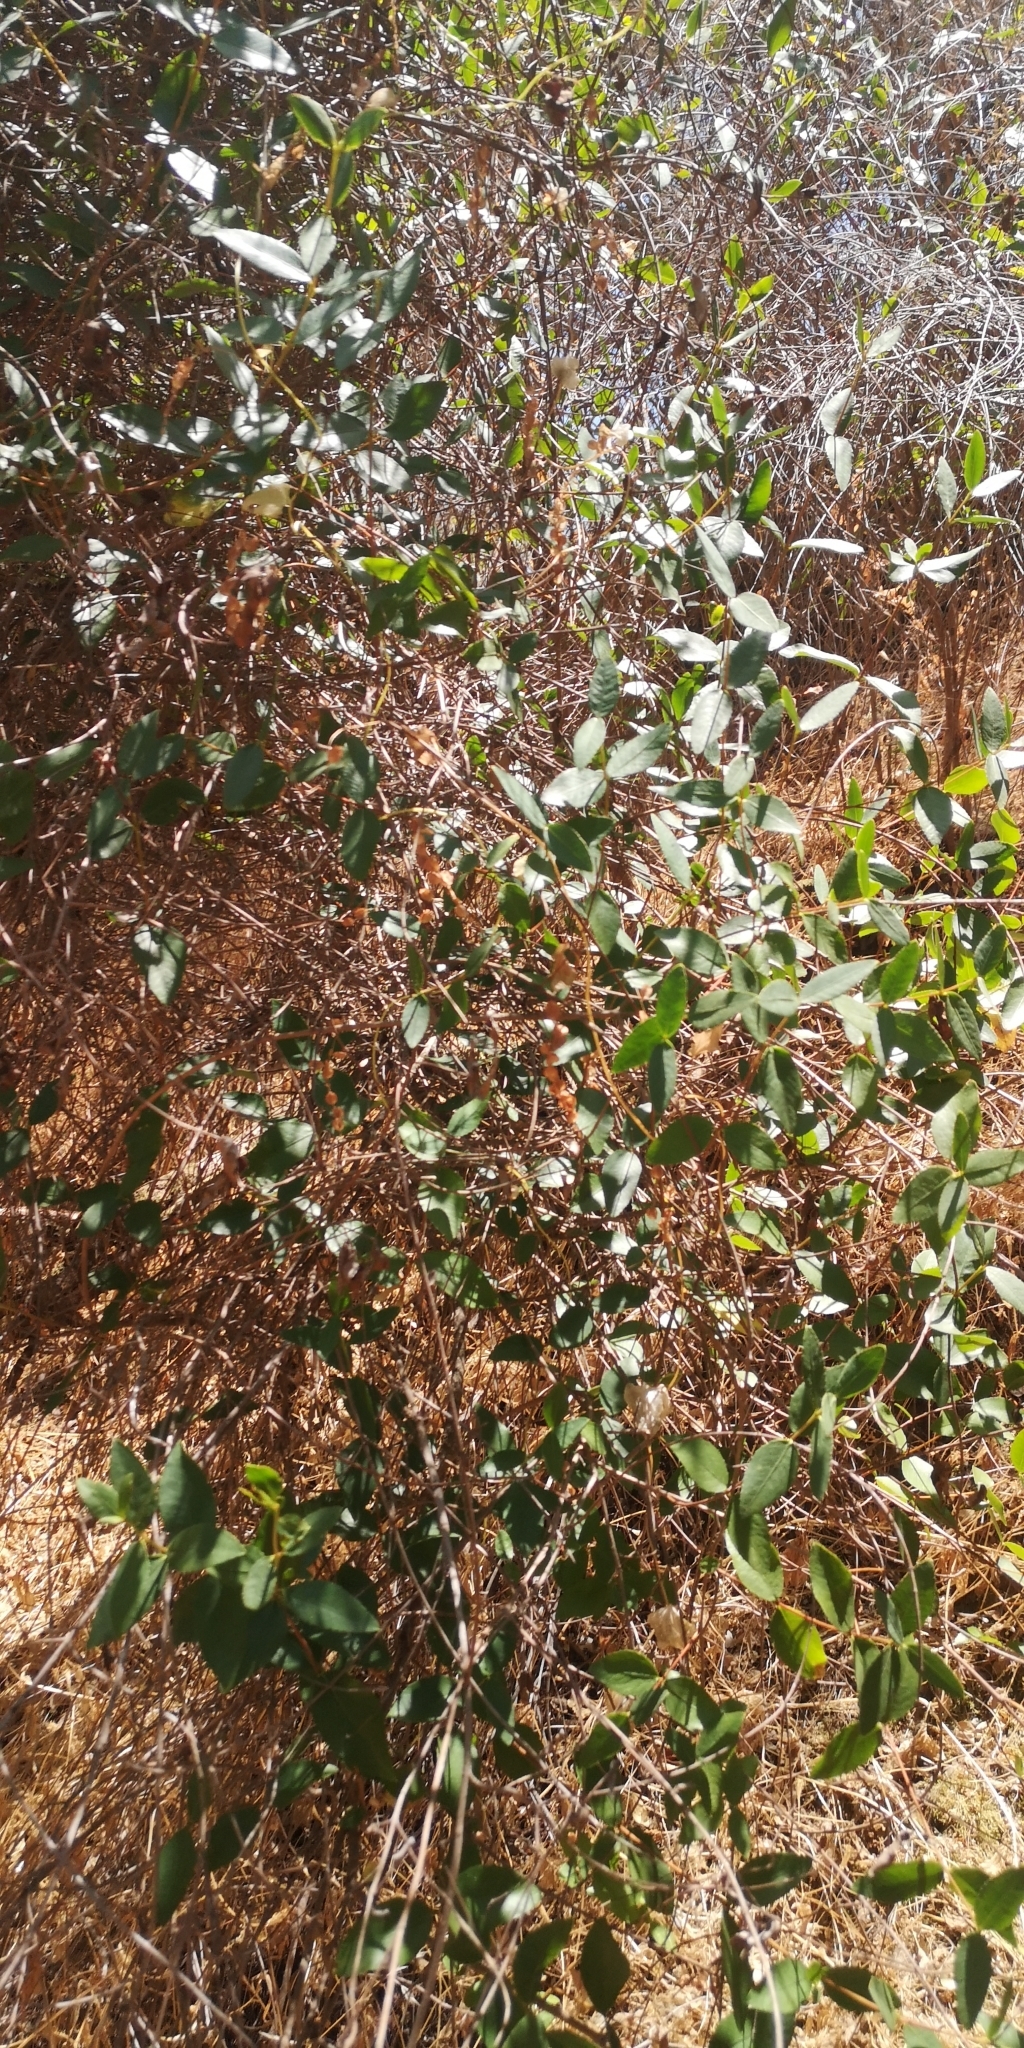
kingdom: Plantae
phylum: Tracheophyta
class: Magnoliopsida
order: Malpighiales
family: Euphorbiaceae
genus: Colliguaja
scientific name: Colliguaja odorifera
